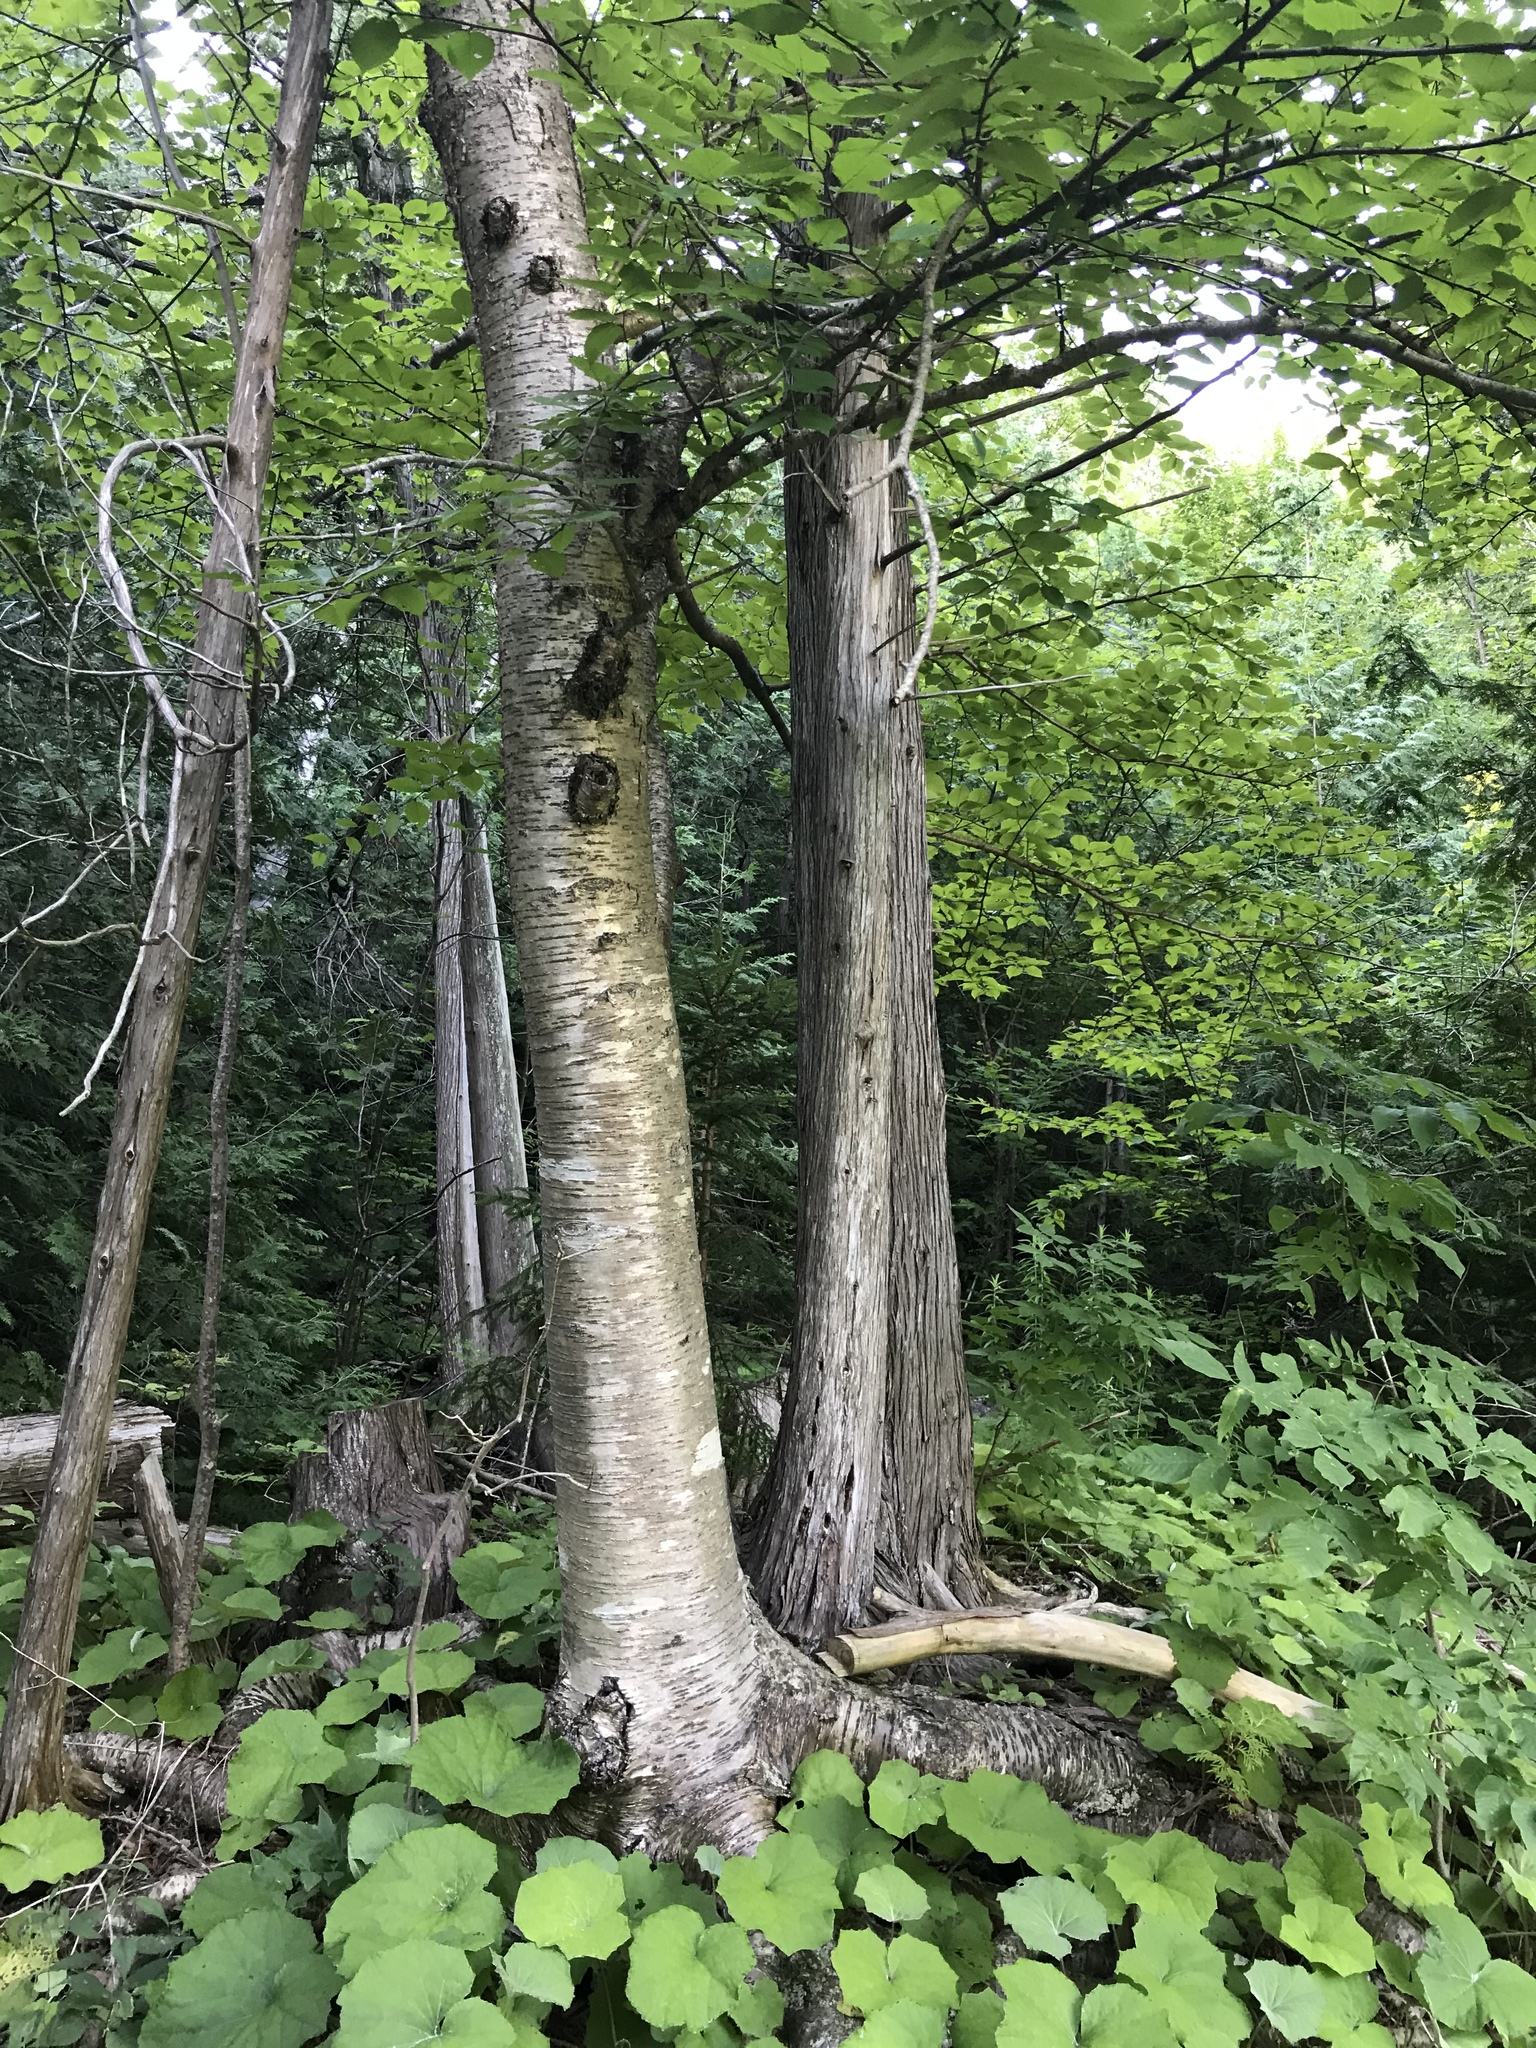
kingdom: Plantae
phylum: Tracheophyta
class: Magnoliopsida
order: Fagales
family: Betulaceae
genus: Betula
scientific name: Betula alleghaniensis
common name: Yellow birch
